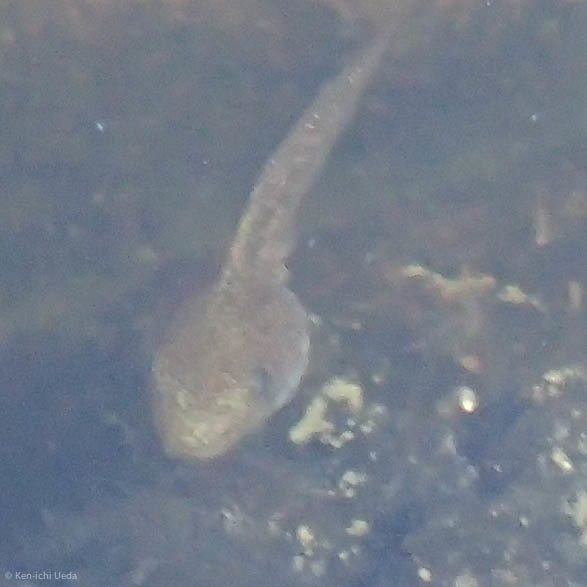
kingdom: Animalia
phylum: Chordata
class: Amphibia
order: Anura
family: Hylidae
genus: Pseudacris
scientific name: Pseudacris regilla
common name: Pacific chorus frog
